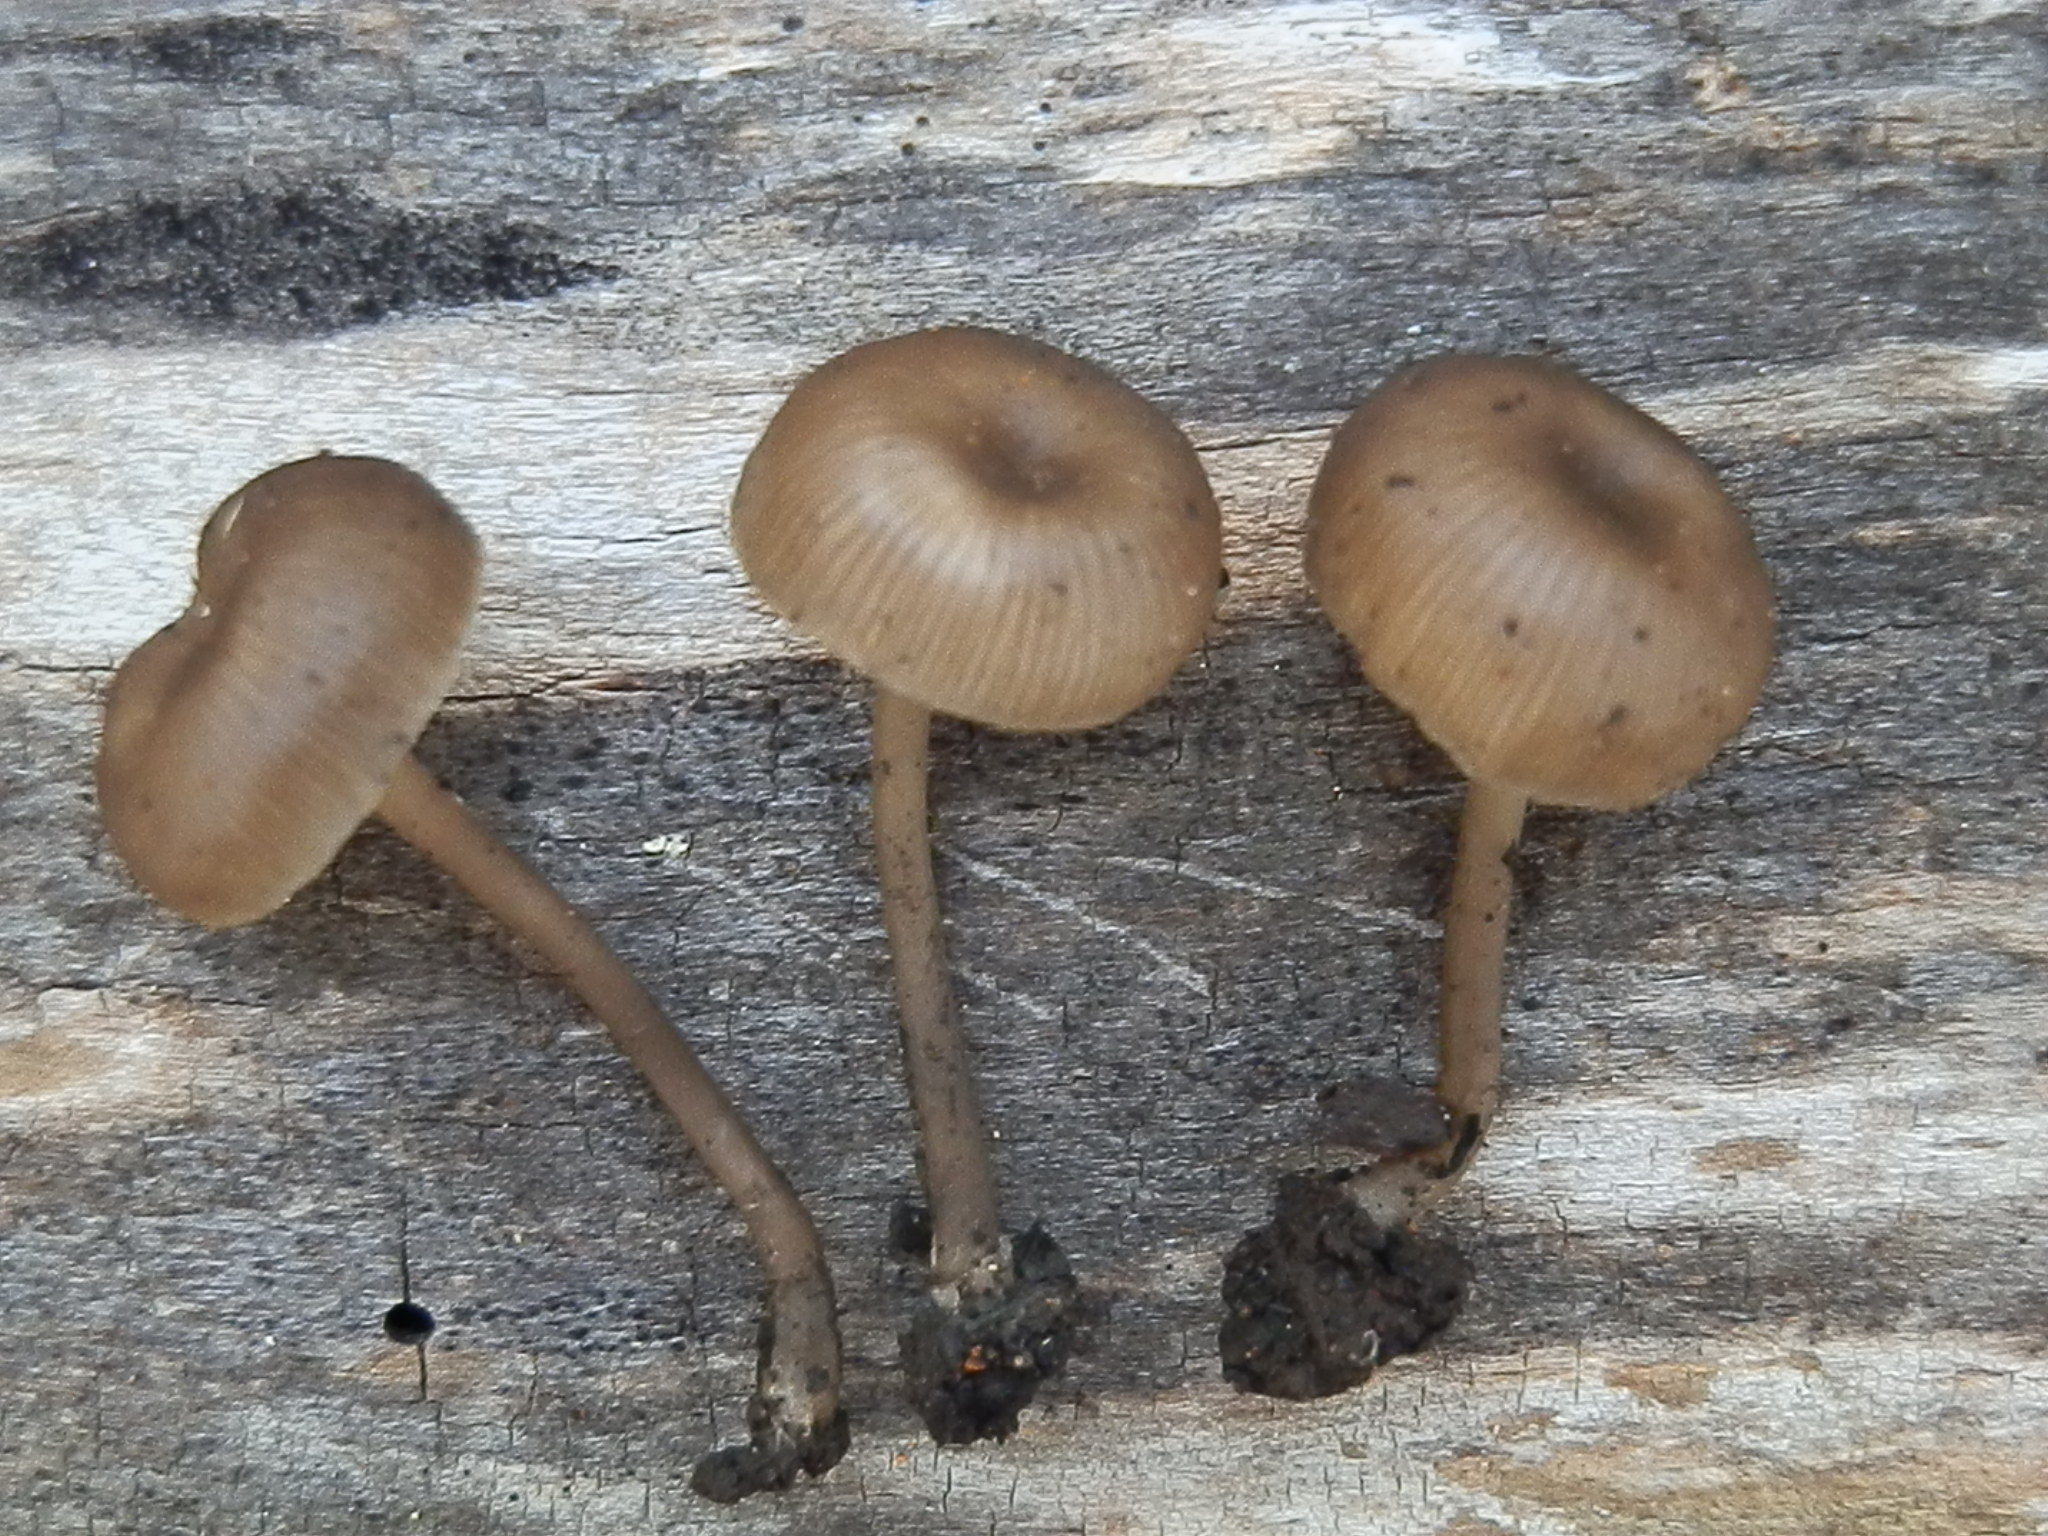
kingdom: Fungi
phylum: Basidiomycota
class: Agaricomycetes
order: Agaricales
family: Tricholomataceae
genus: Myxomphalia
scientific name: Myxomphalia maura
